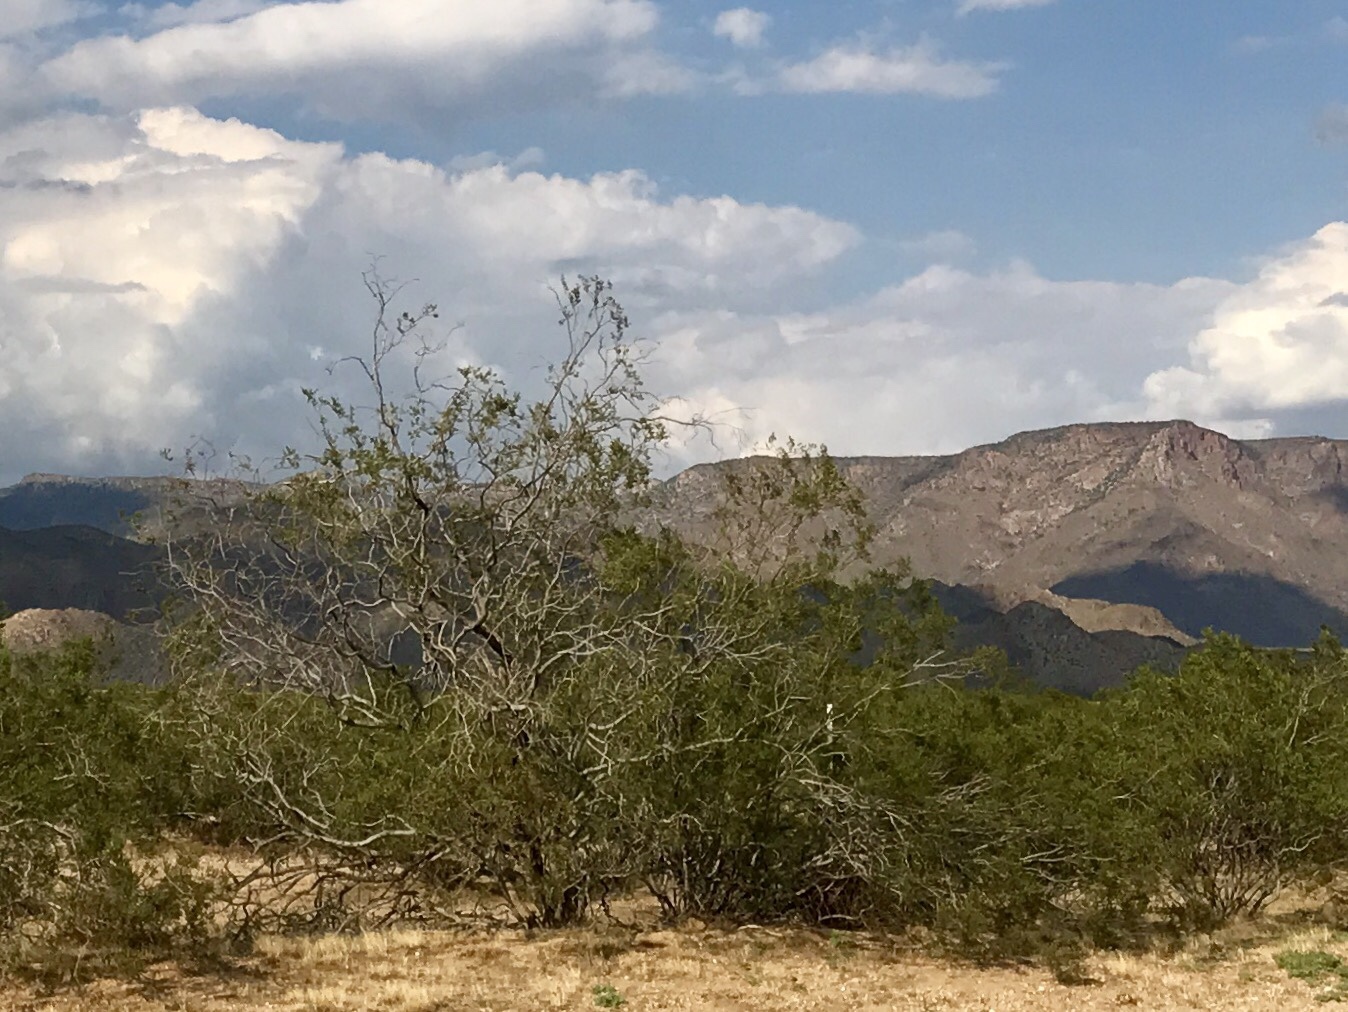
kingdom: Plantae
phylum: Tracheophyta
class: Magnoliopsida
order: Zygophyllales
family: Zygophyllaceae
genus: Larrea
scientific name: Larrea tridentata
